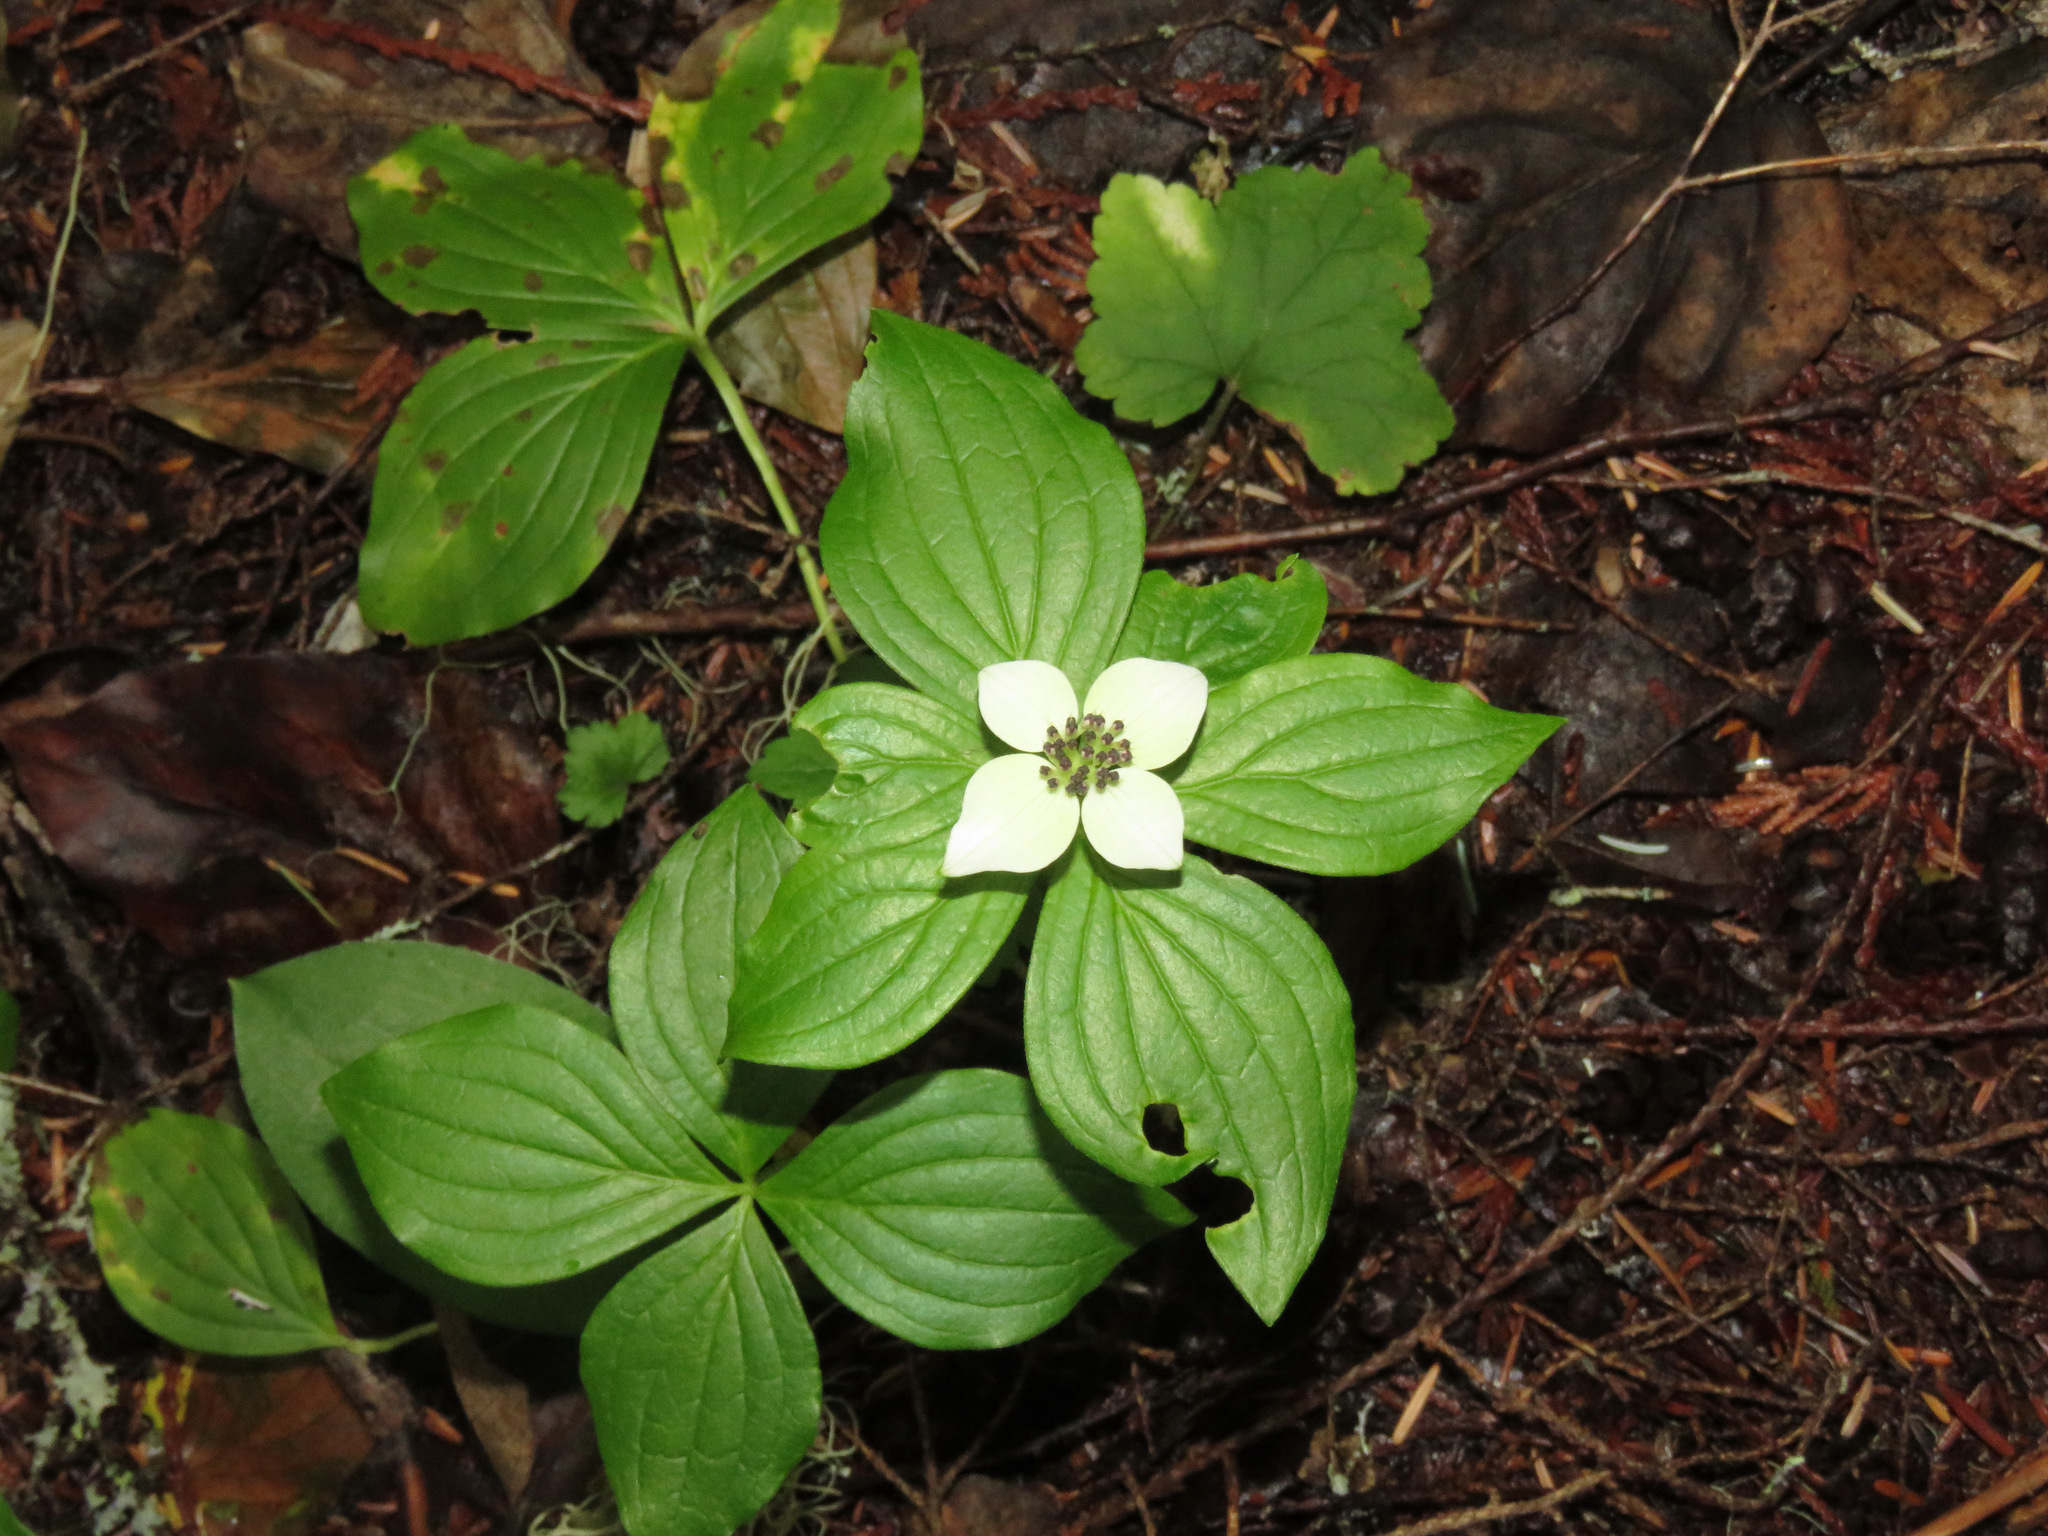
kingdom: Plantae
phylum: Tracheophyta
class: Magnoliopsida
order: Cornales
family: Cornaceae
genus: Cornus
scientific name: Cornus unalaschkensis
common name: Alaska bunchberry
